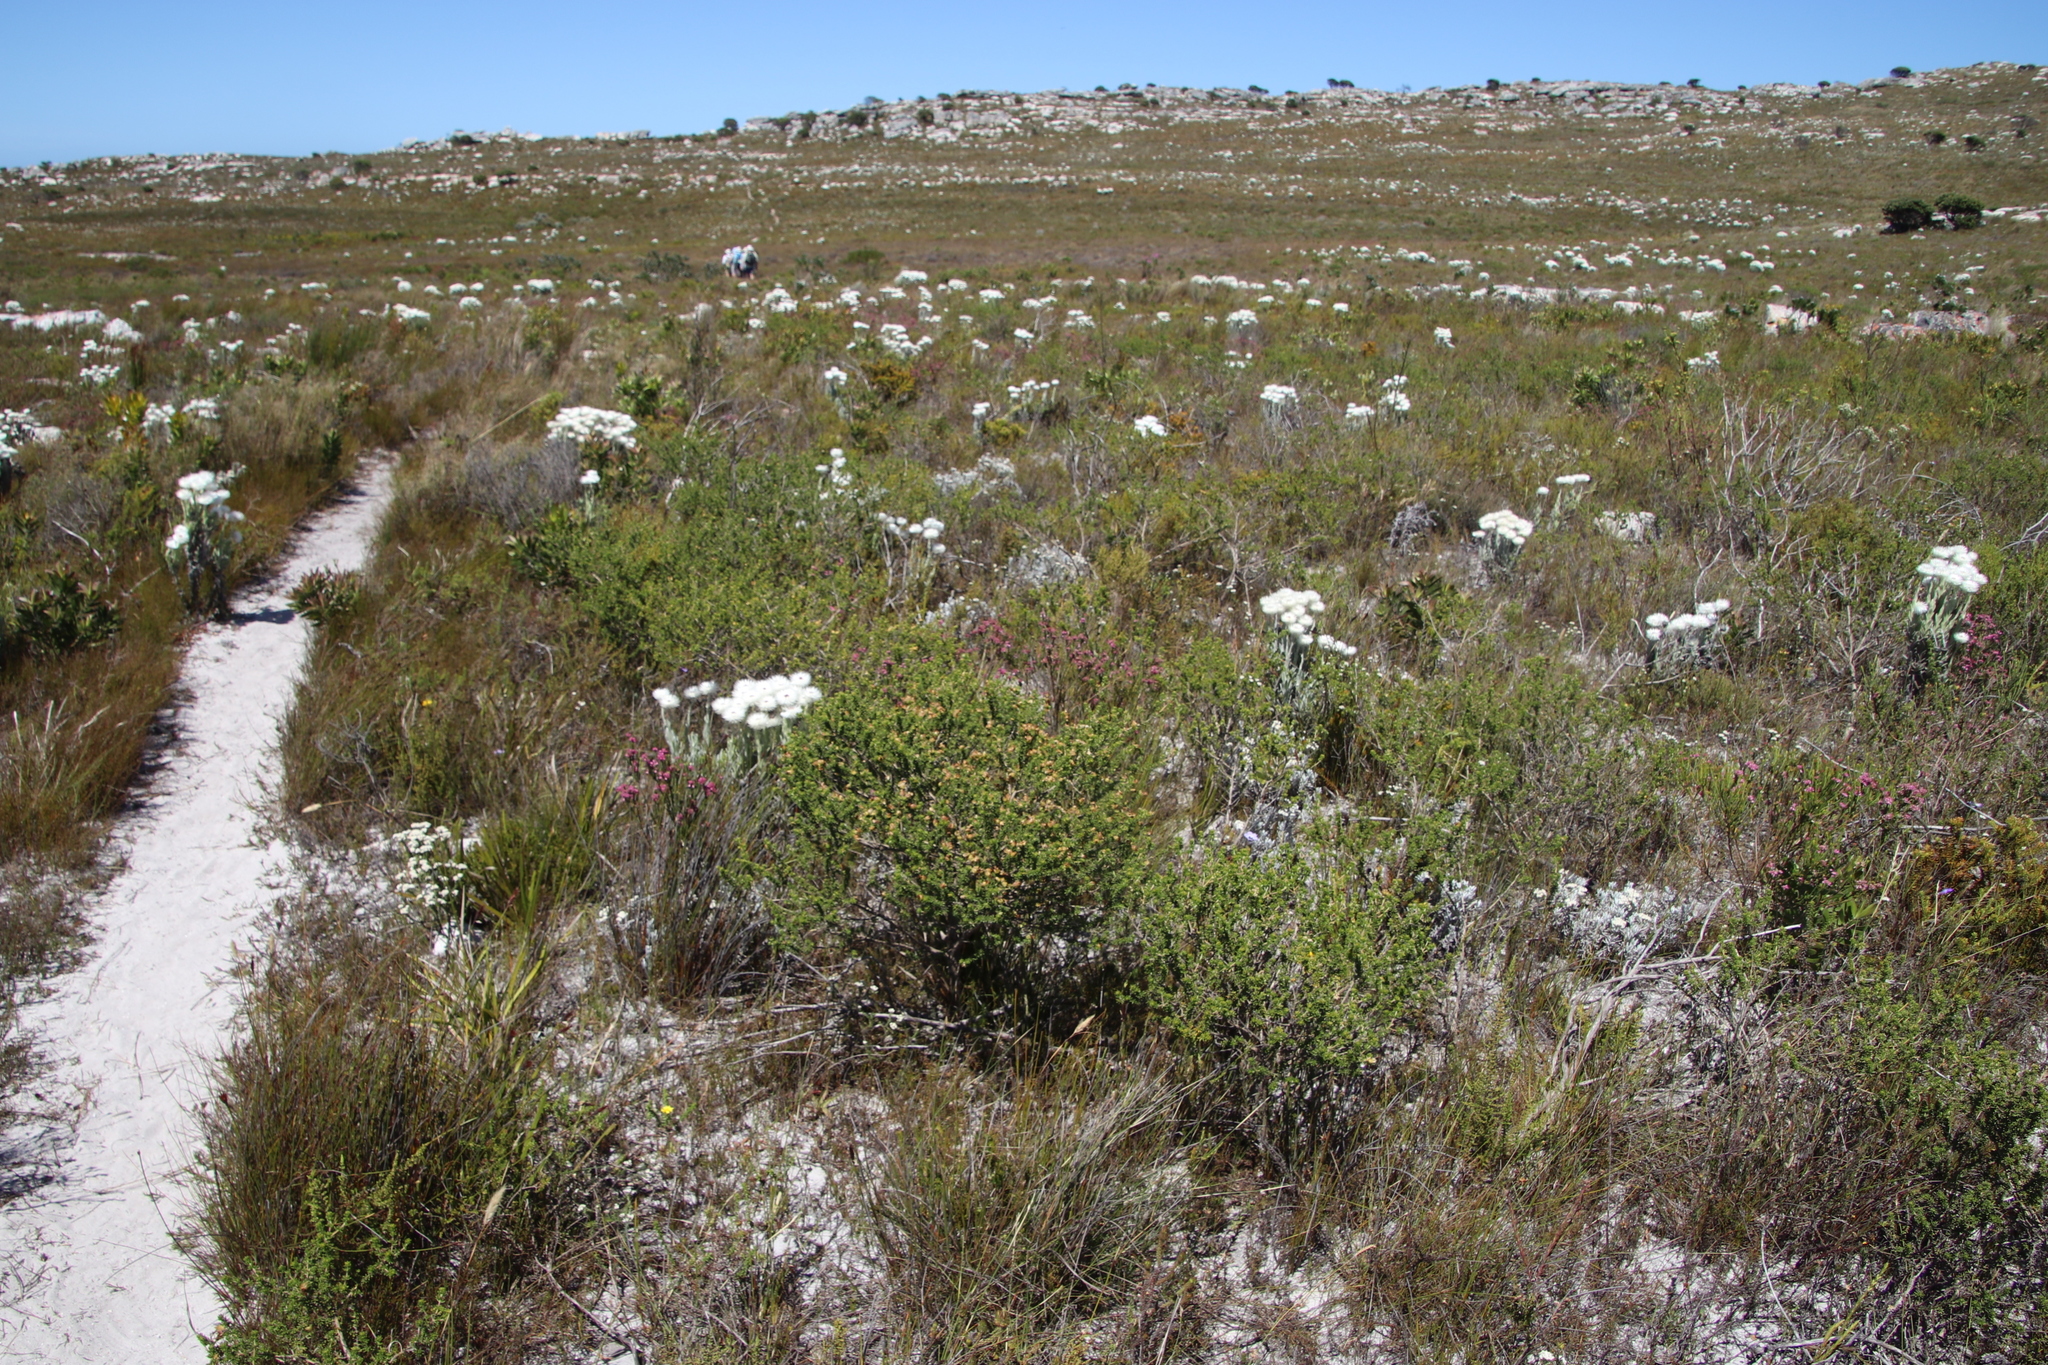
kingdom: Plantae
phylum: Tracheophyta
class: Magnoliopsida
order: Fabales
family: Fabaceae
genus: Aspalathus
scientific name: Aspalathus carnosa
